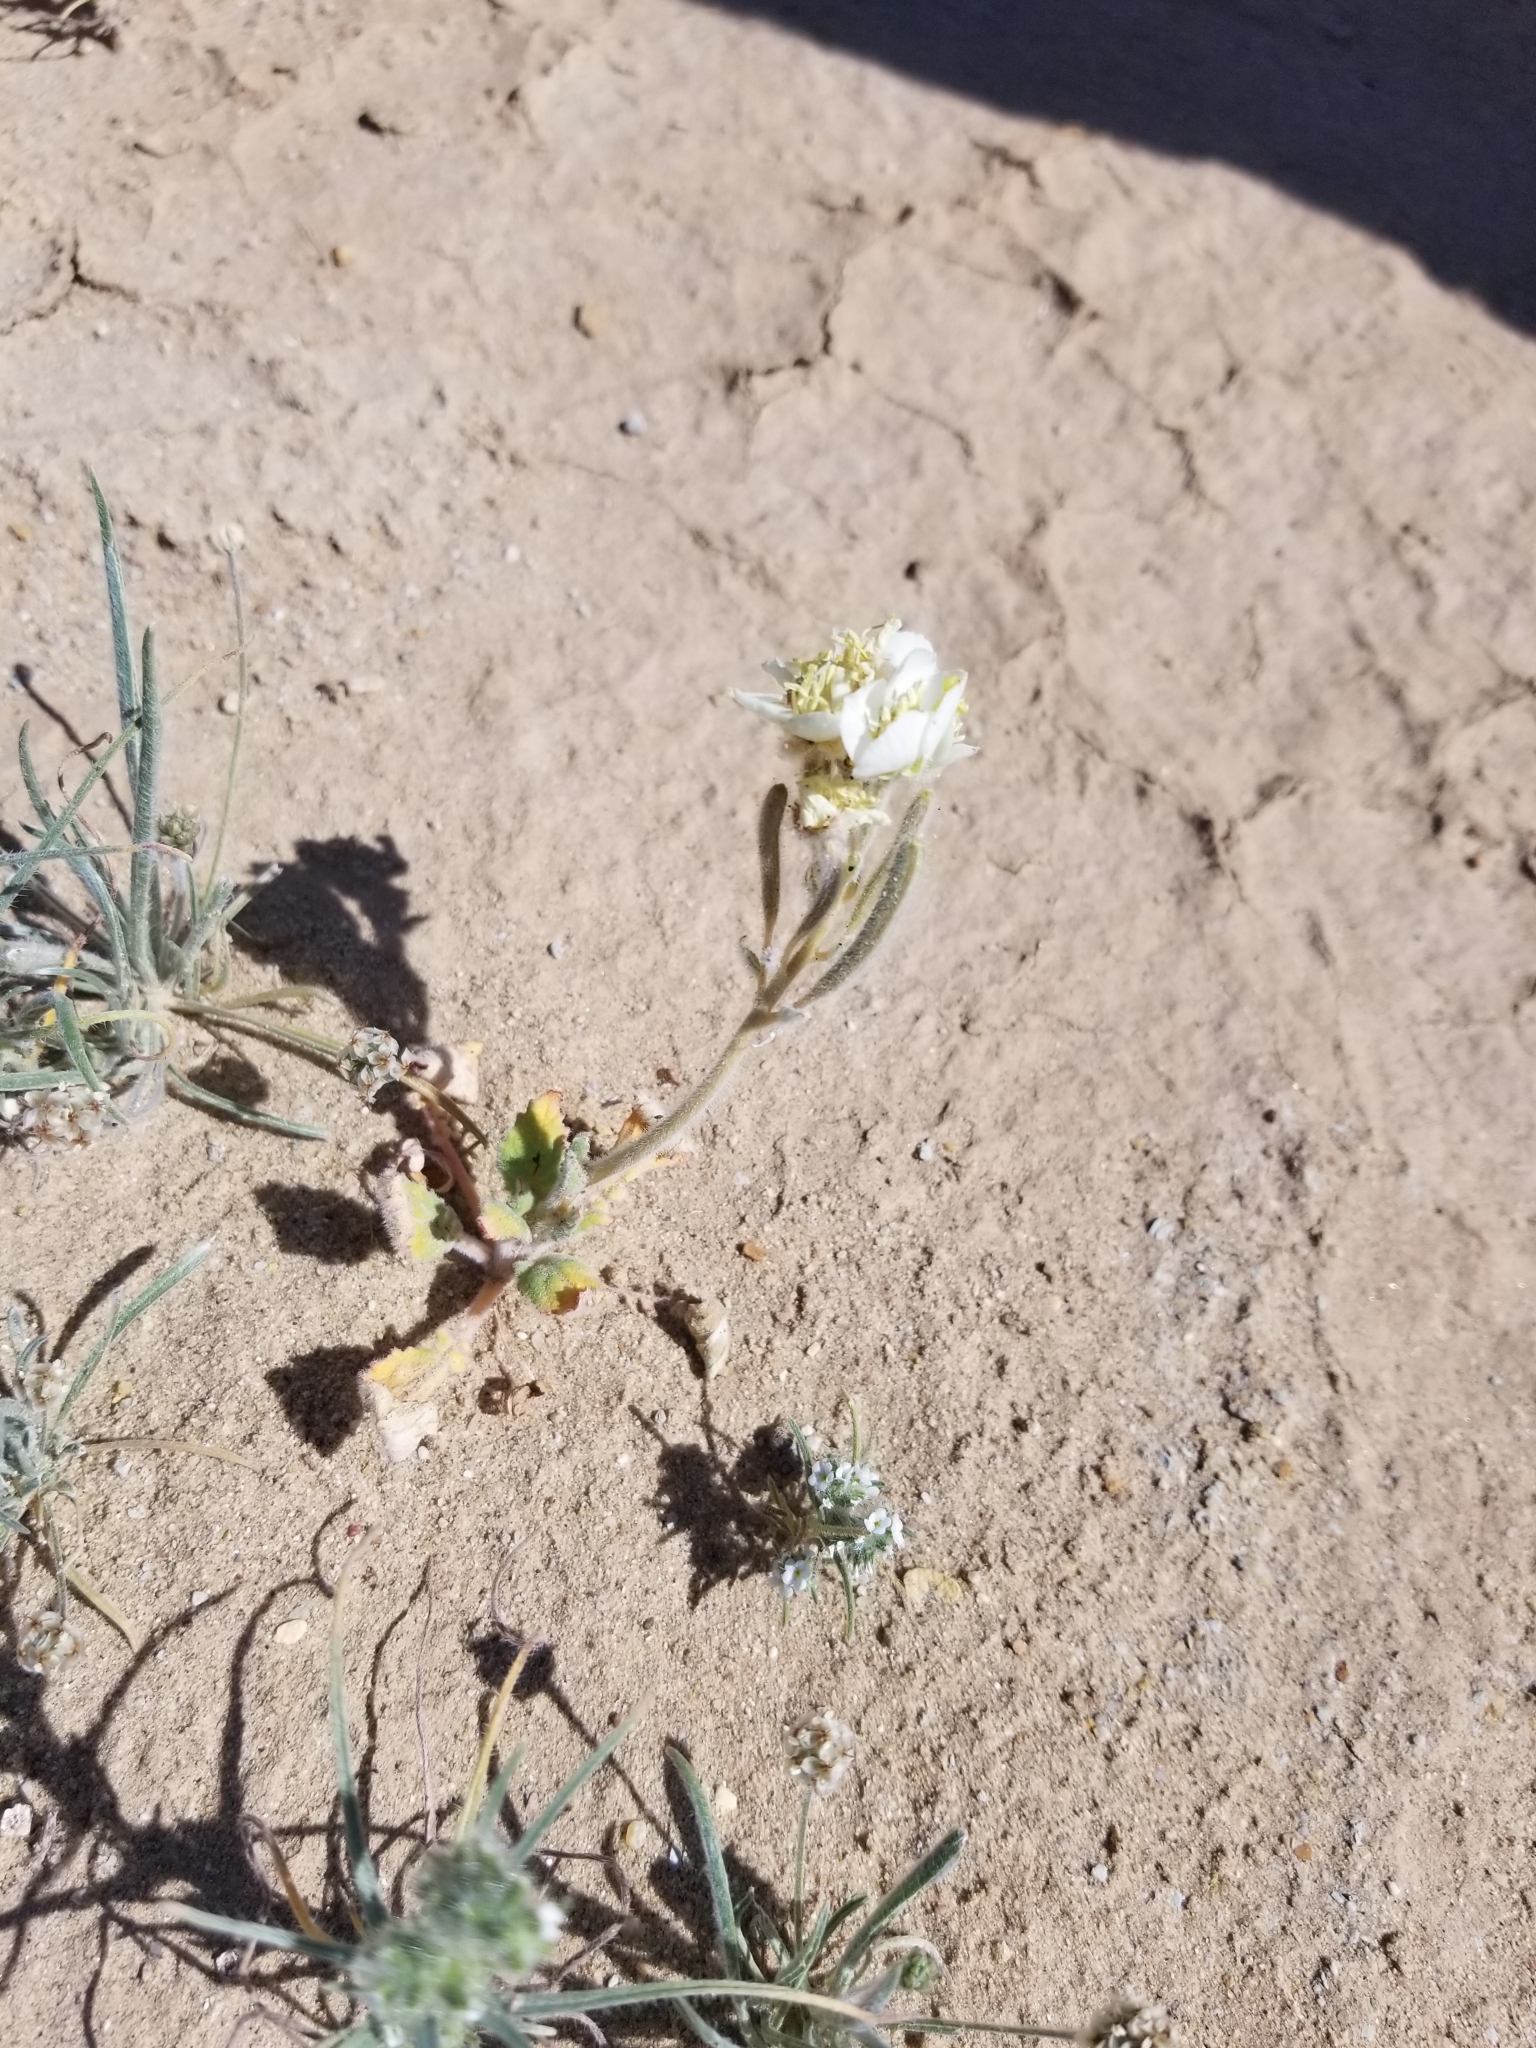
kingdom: Plantae
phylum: Tracheophyta
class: Magnoliopsida
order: Myrtales
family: Onagraceae
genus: Chylismia
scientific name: Chylismia claviformis
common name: Browneyes
